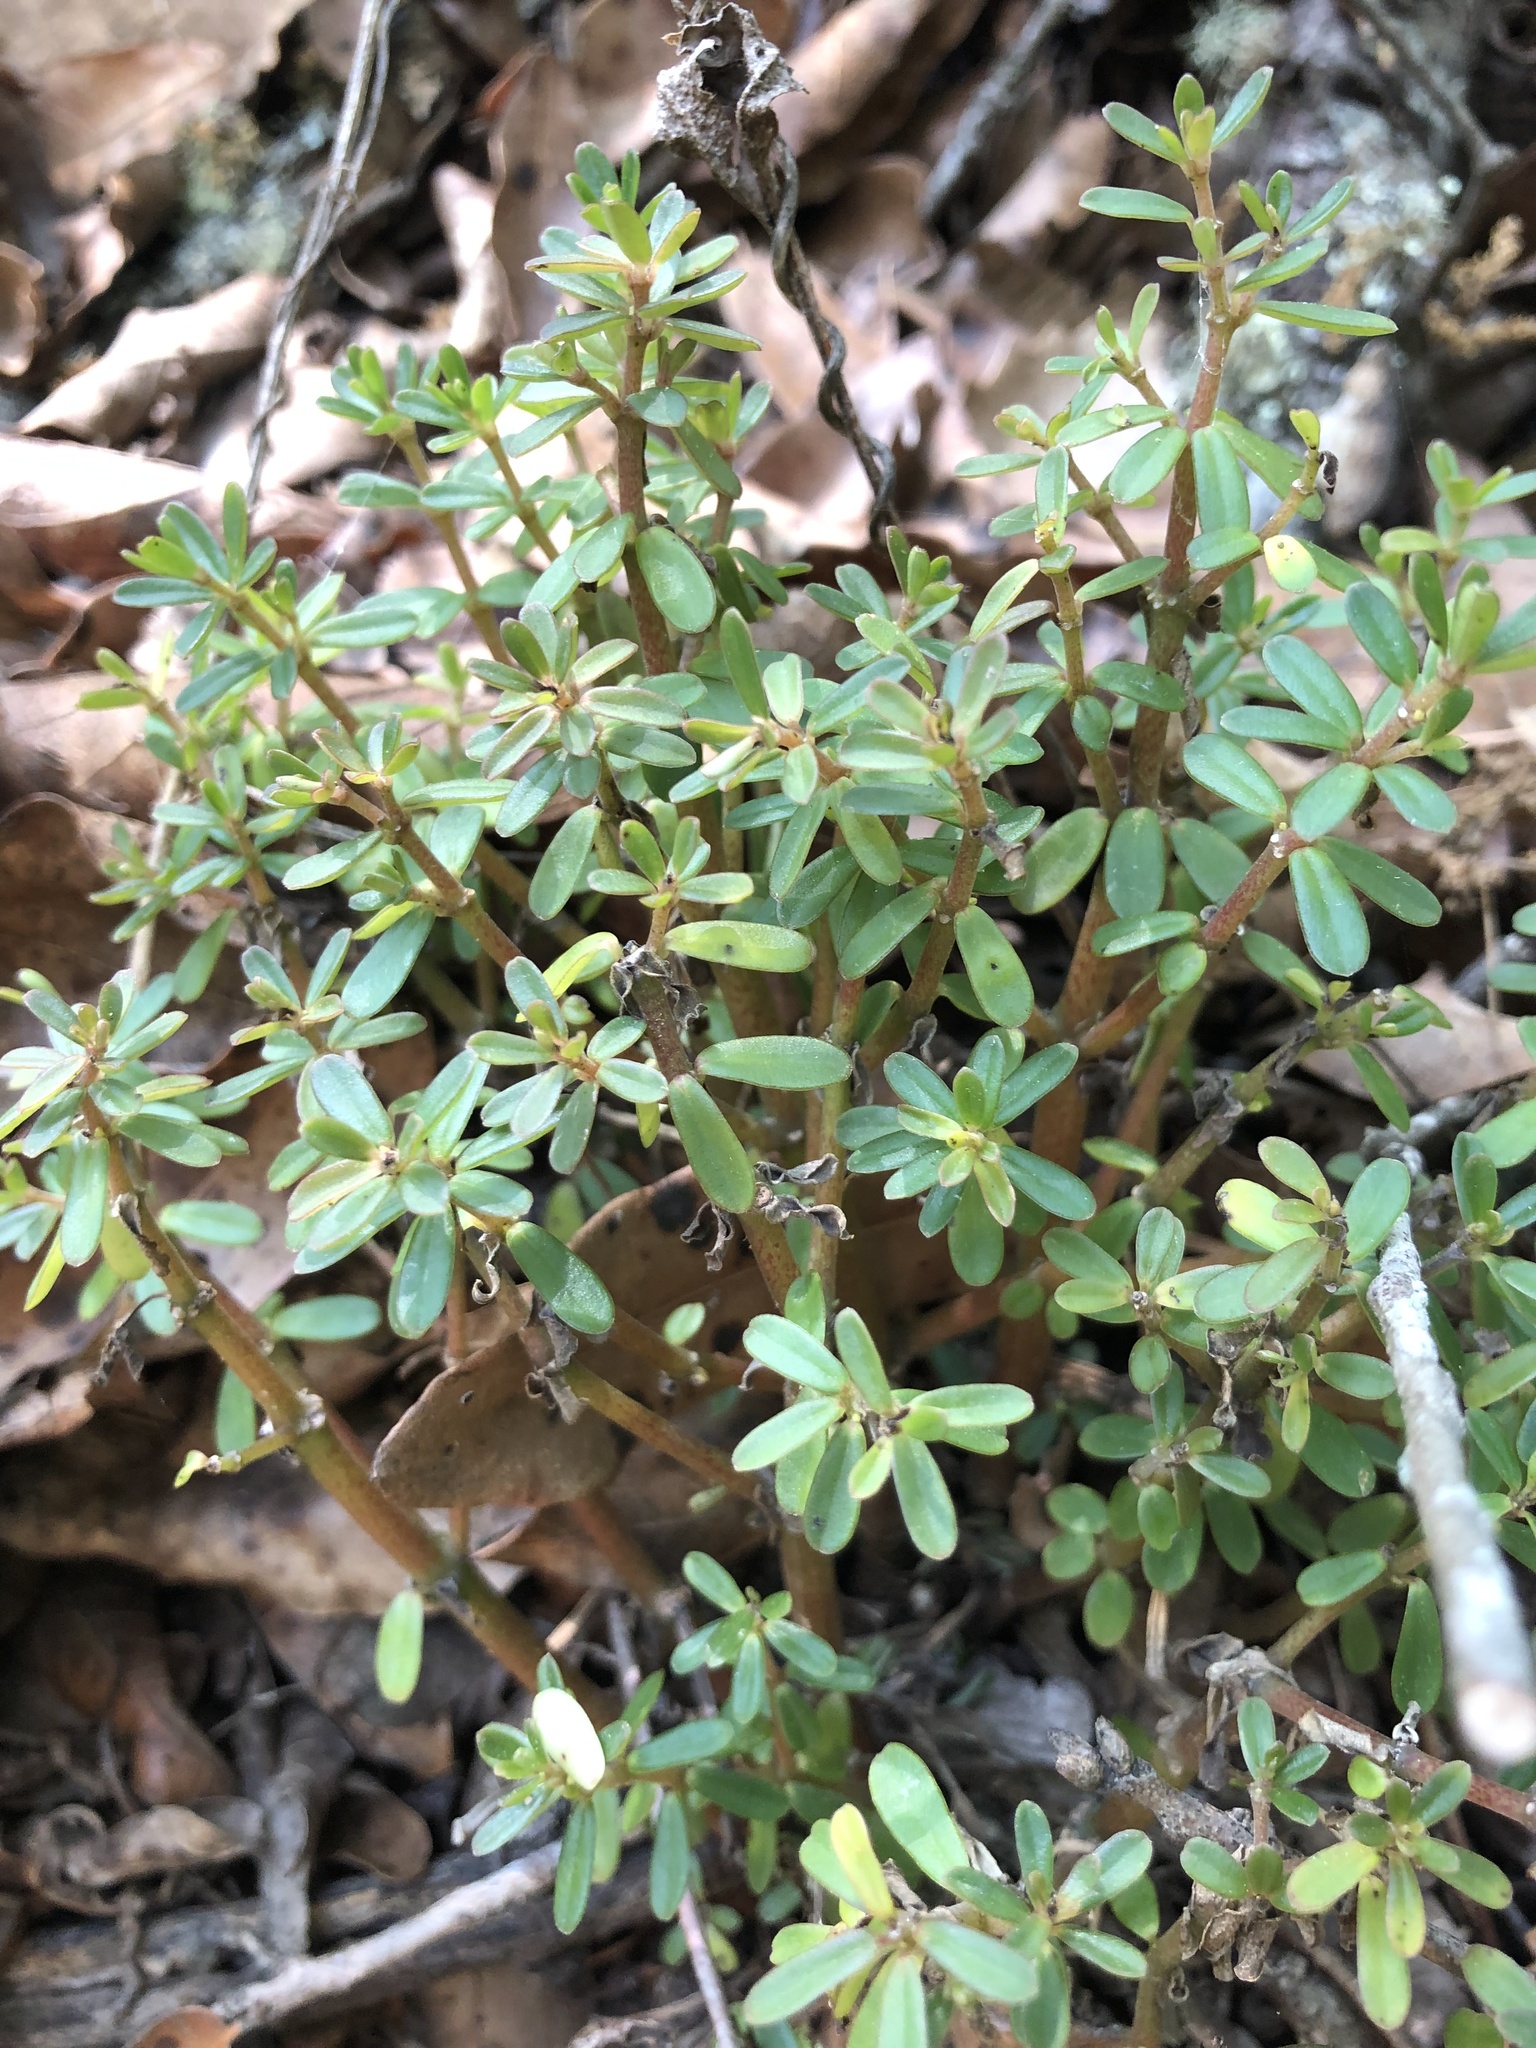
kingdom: Plantae
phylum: Tracheophyta
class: Magnoliopsida
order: Piperales
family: Piperaceae
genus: Peperomia
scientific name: Peperomia galioides
